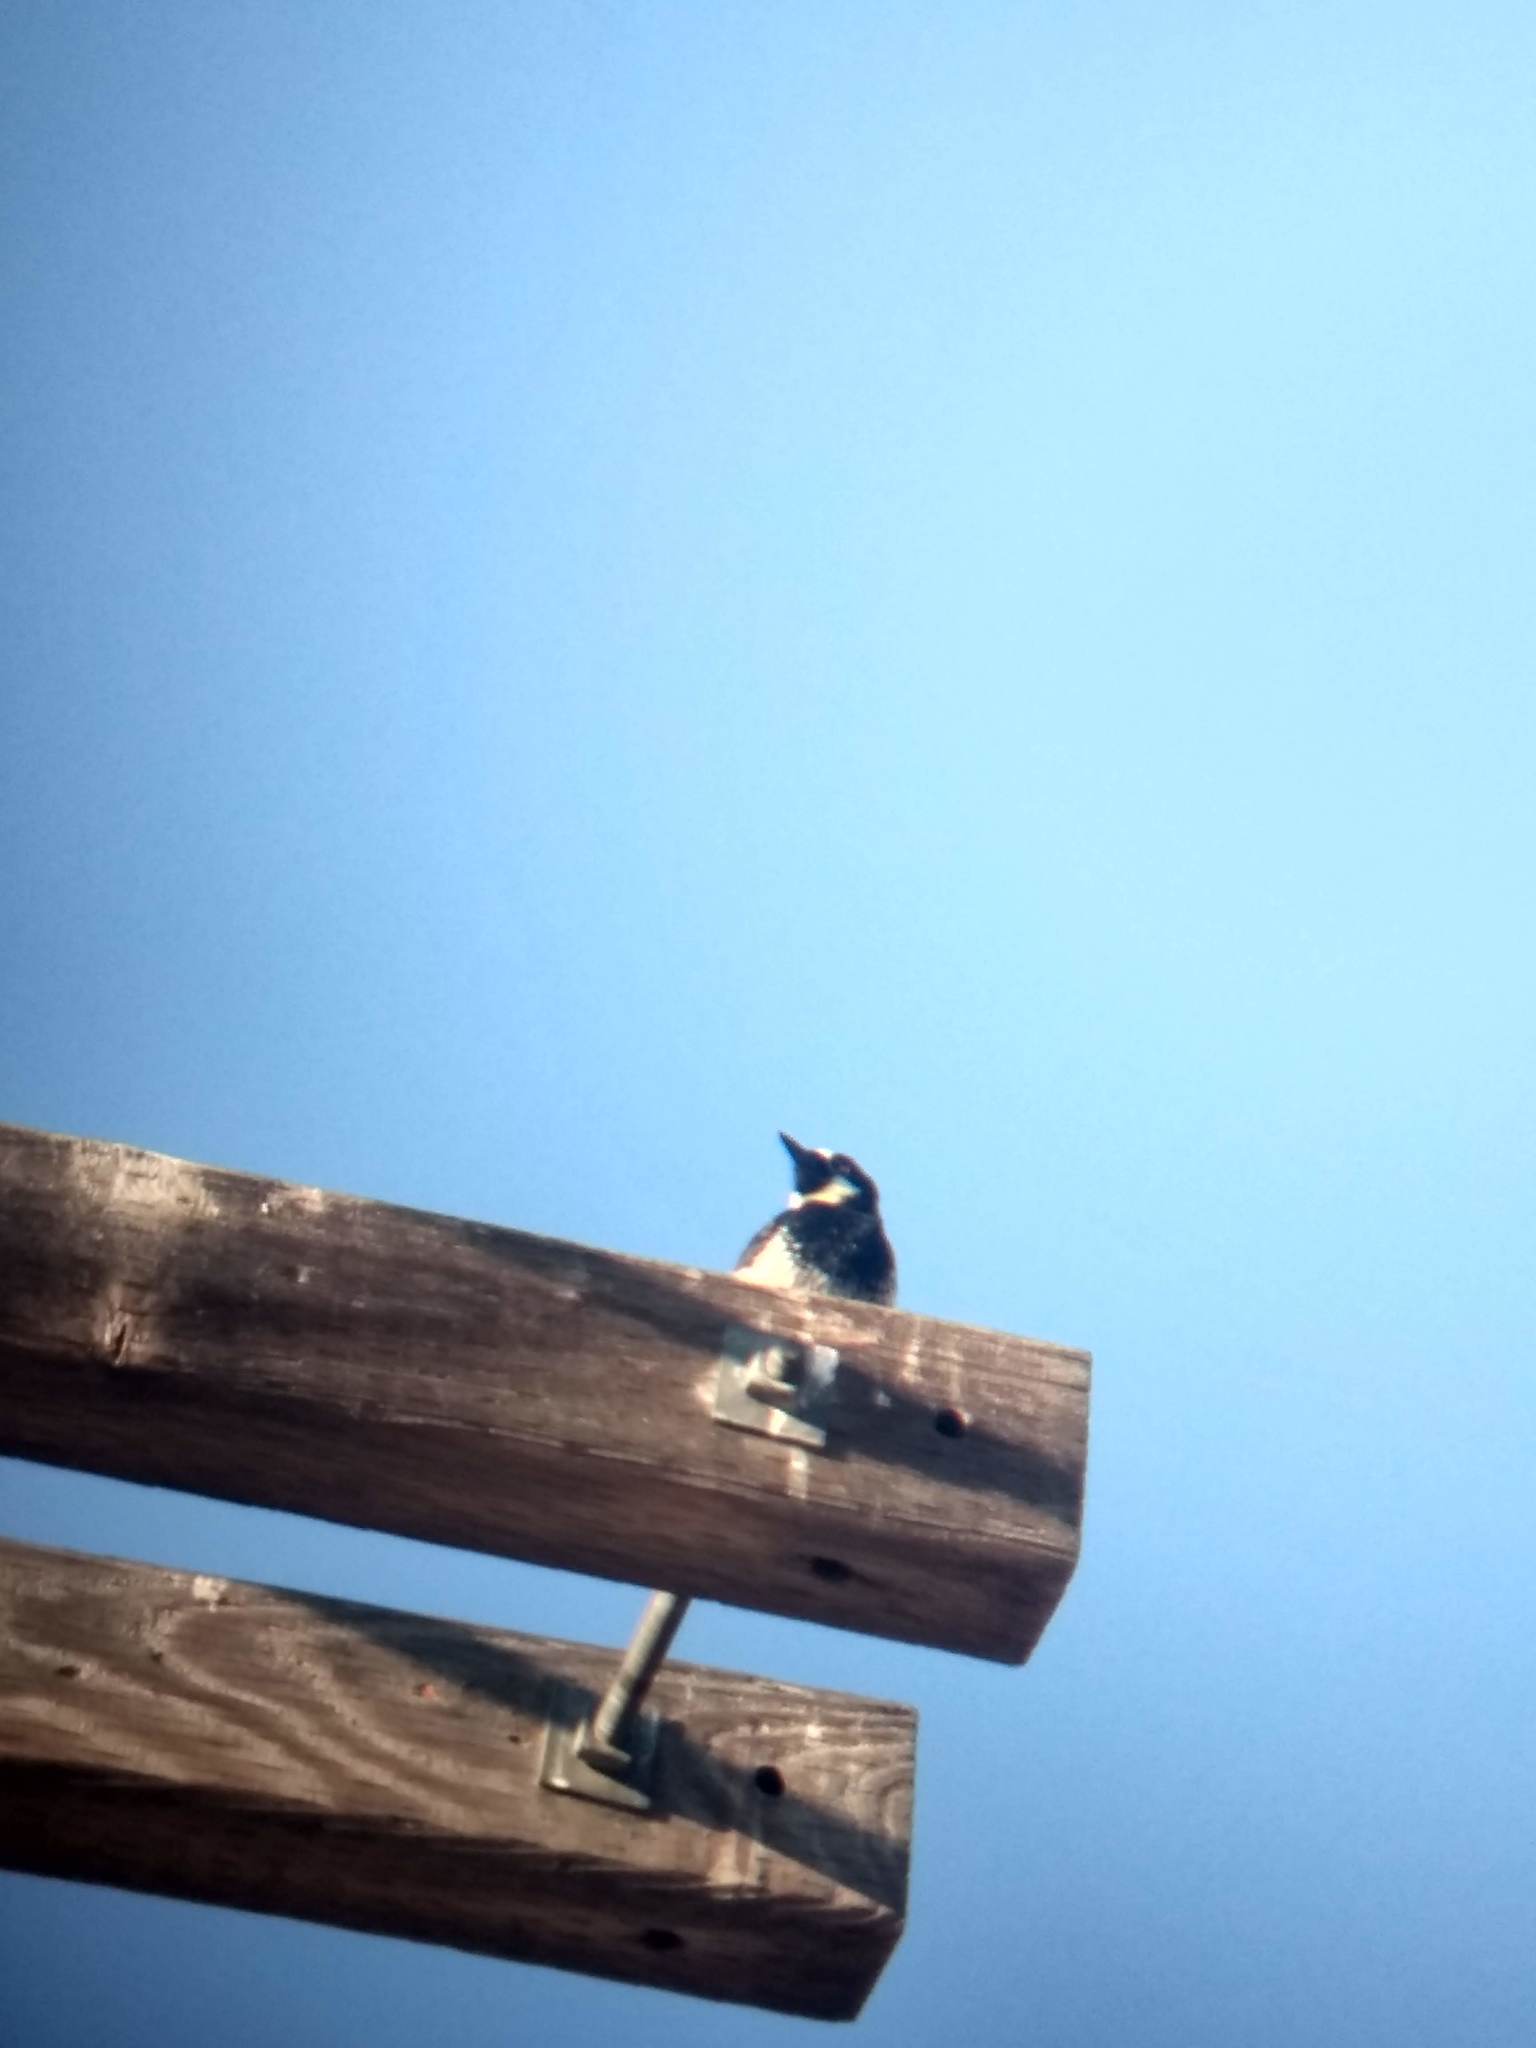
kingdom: Animalia
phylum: Chordata
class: Aves
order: Piciformes
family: Picidae
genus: Melanerpes
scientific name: Melanerpes formicivorus
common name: Acorn woodpecker
